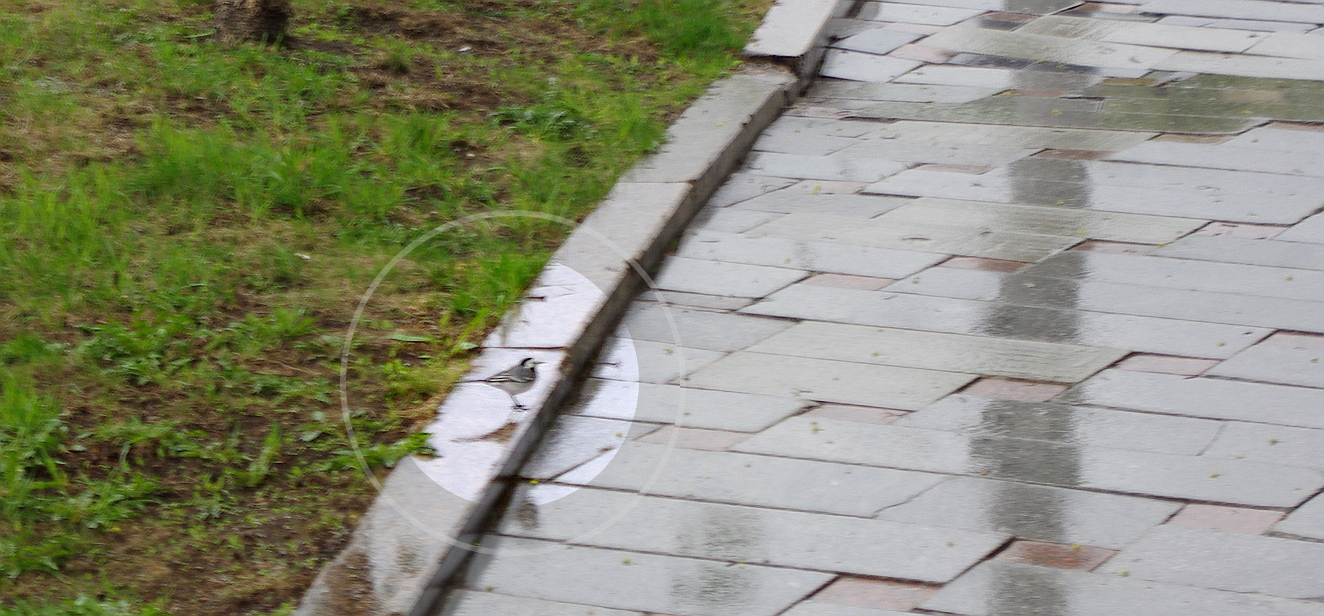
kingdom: Animalia
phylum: Chordata
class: Aves
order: Passeriformes
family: Motacillidae
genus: Motacilla
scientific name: Motacilla alba
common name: White wagtail
